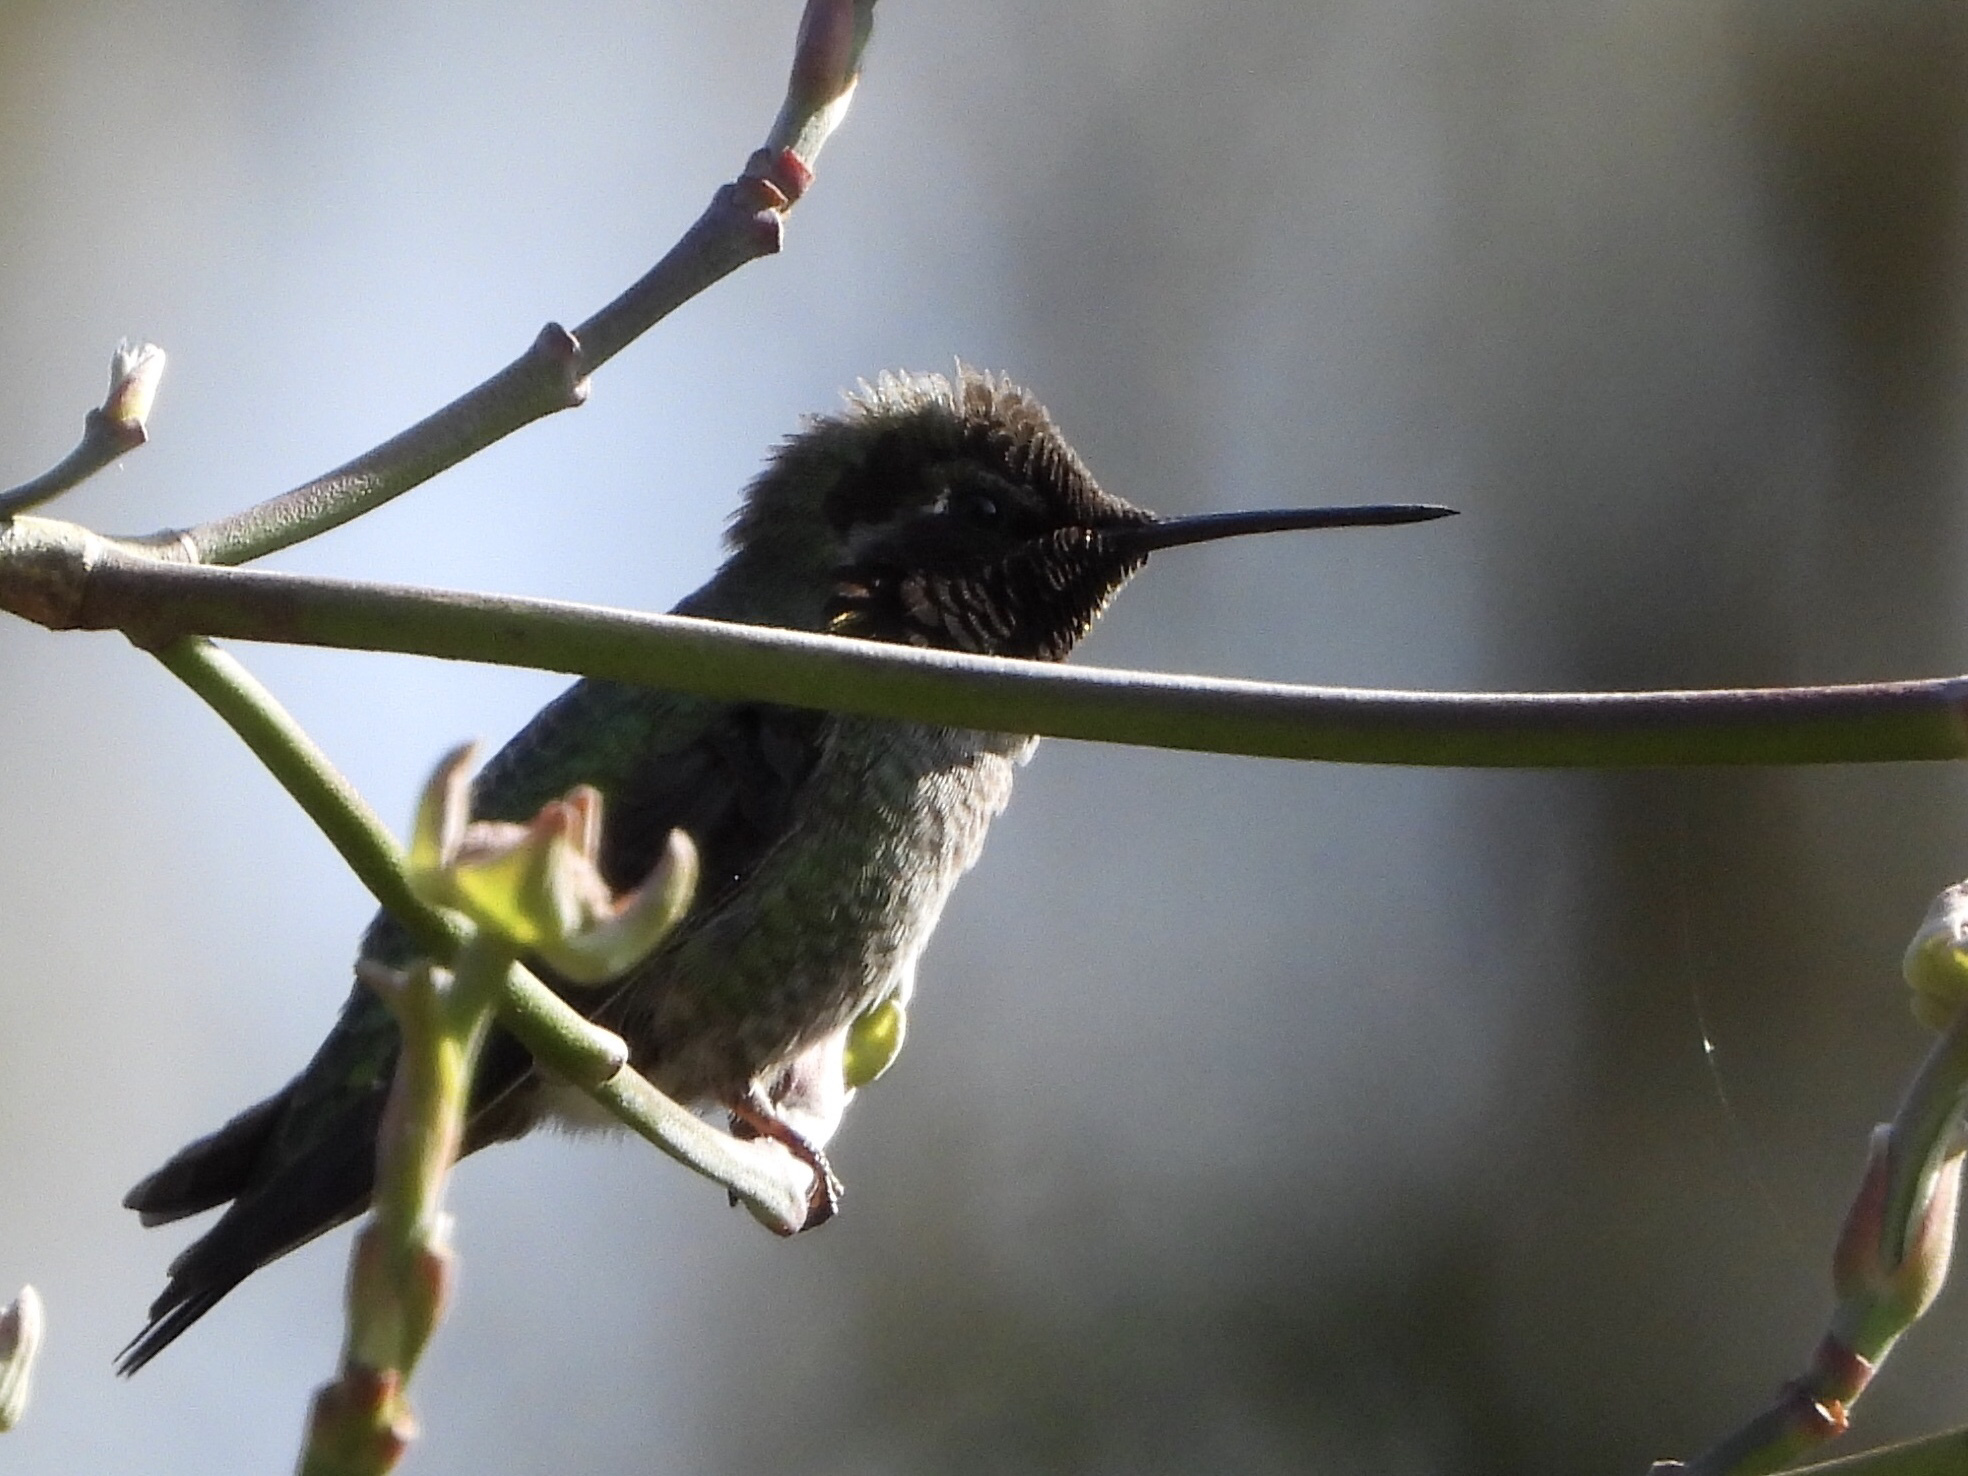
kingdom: Animalia
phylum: Chordata
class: Aves
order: Apodiformes
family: Trochilidae
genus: Calypte
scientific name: Calypte anna
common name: Anna's hummingbird
